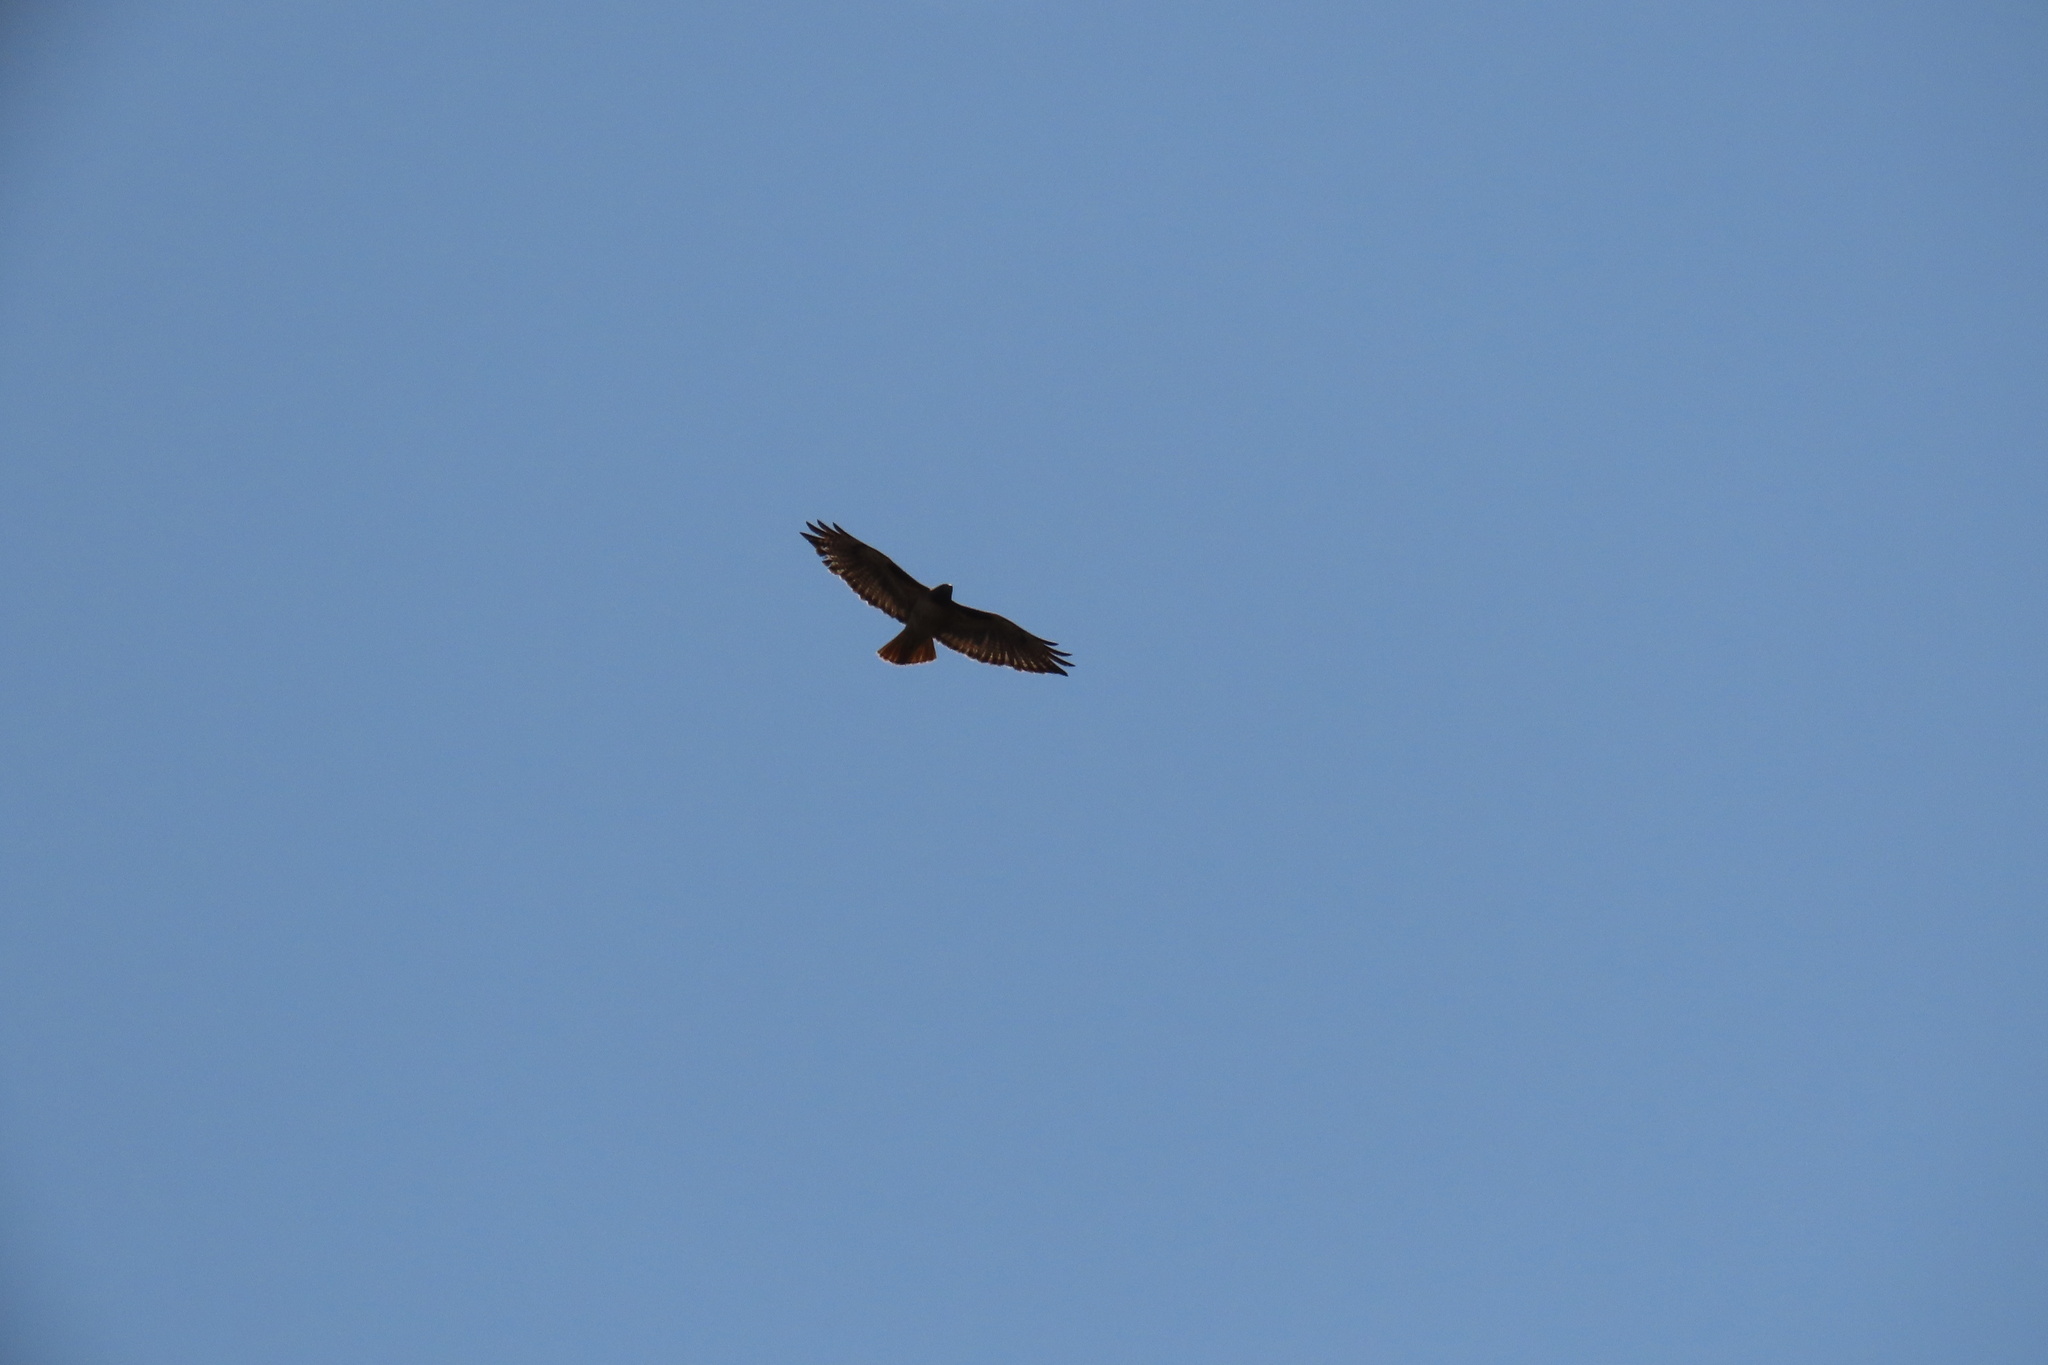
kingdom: Animalia
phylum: Chordata
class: Aves
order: Accipitriformes
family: Accipitridae
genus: Buteo
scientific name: Buteo jamaicensis
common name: Red-tailed hawk
